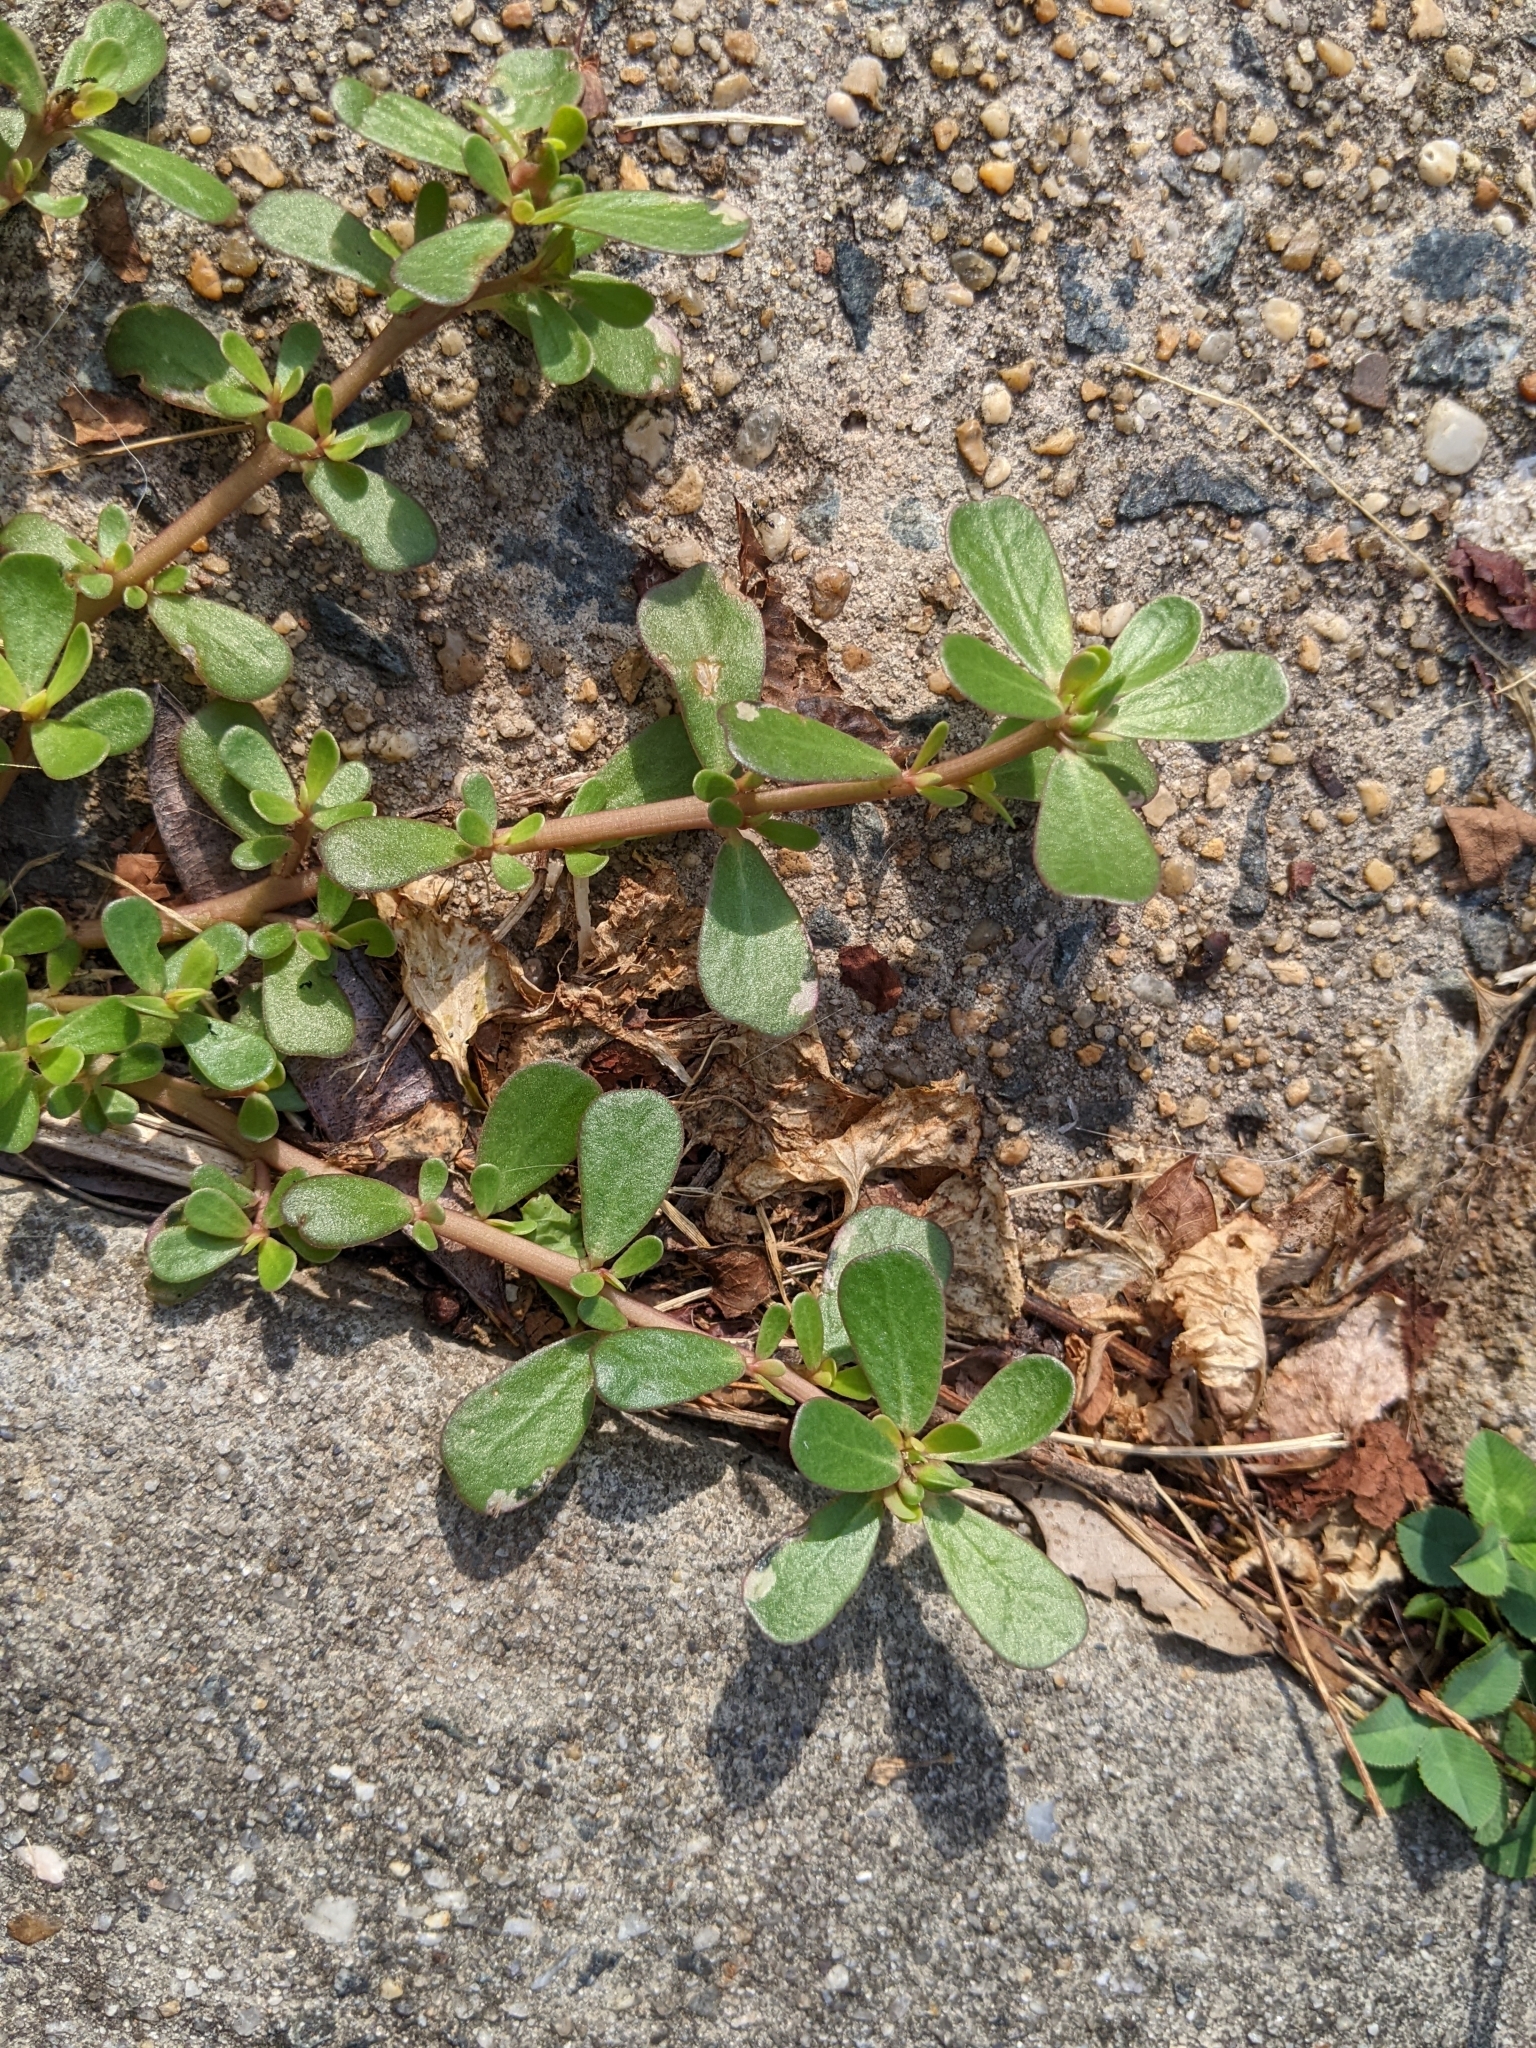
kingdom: Plantae
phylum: Tracheophyta
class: Magnoliopsida
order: Caryophyllales
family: Portulacaceae
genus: Portulaca
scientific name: Portulaca oleracea
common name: Common purslane
